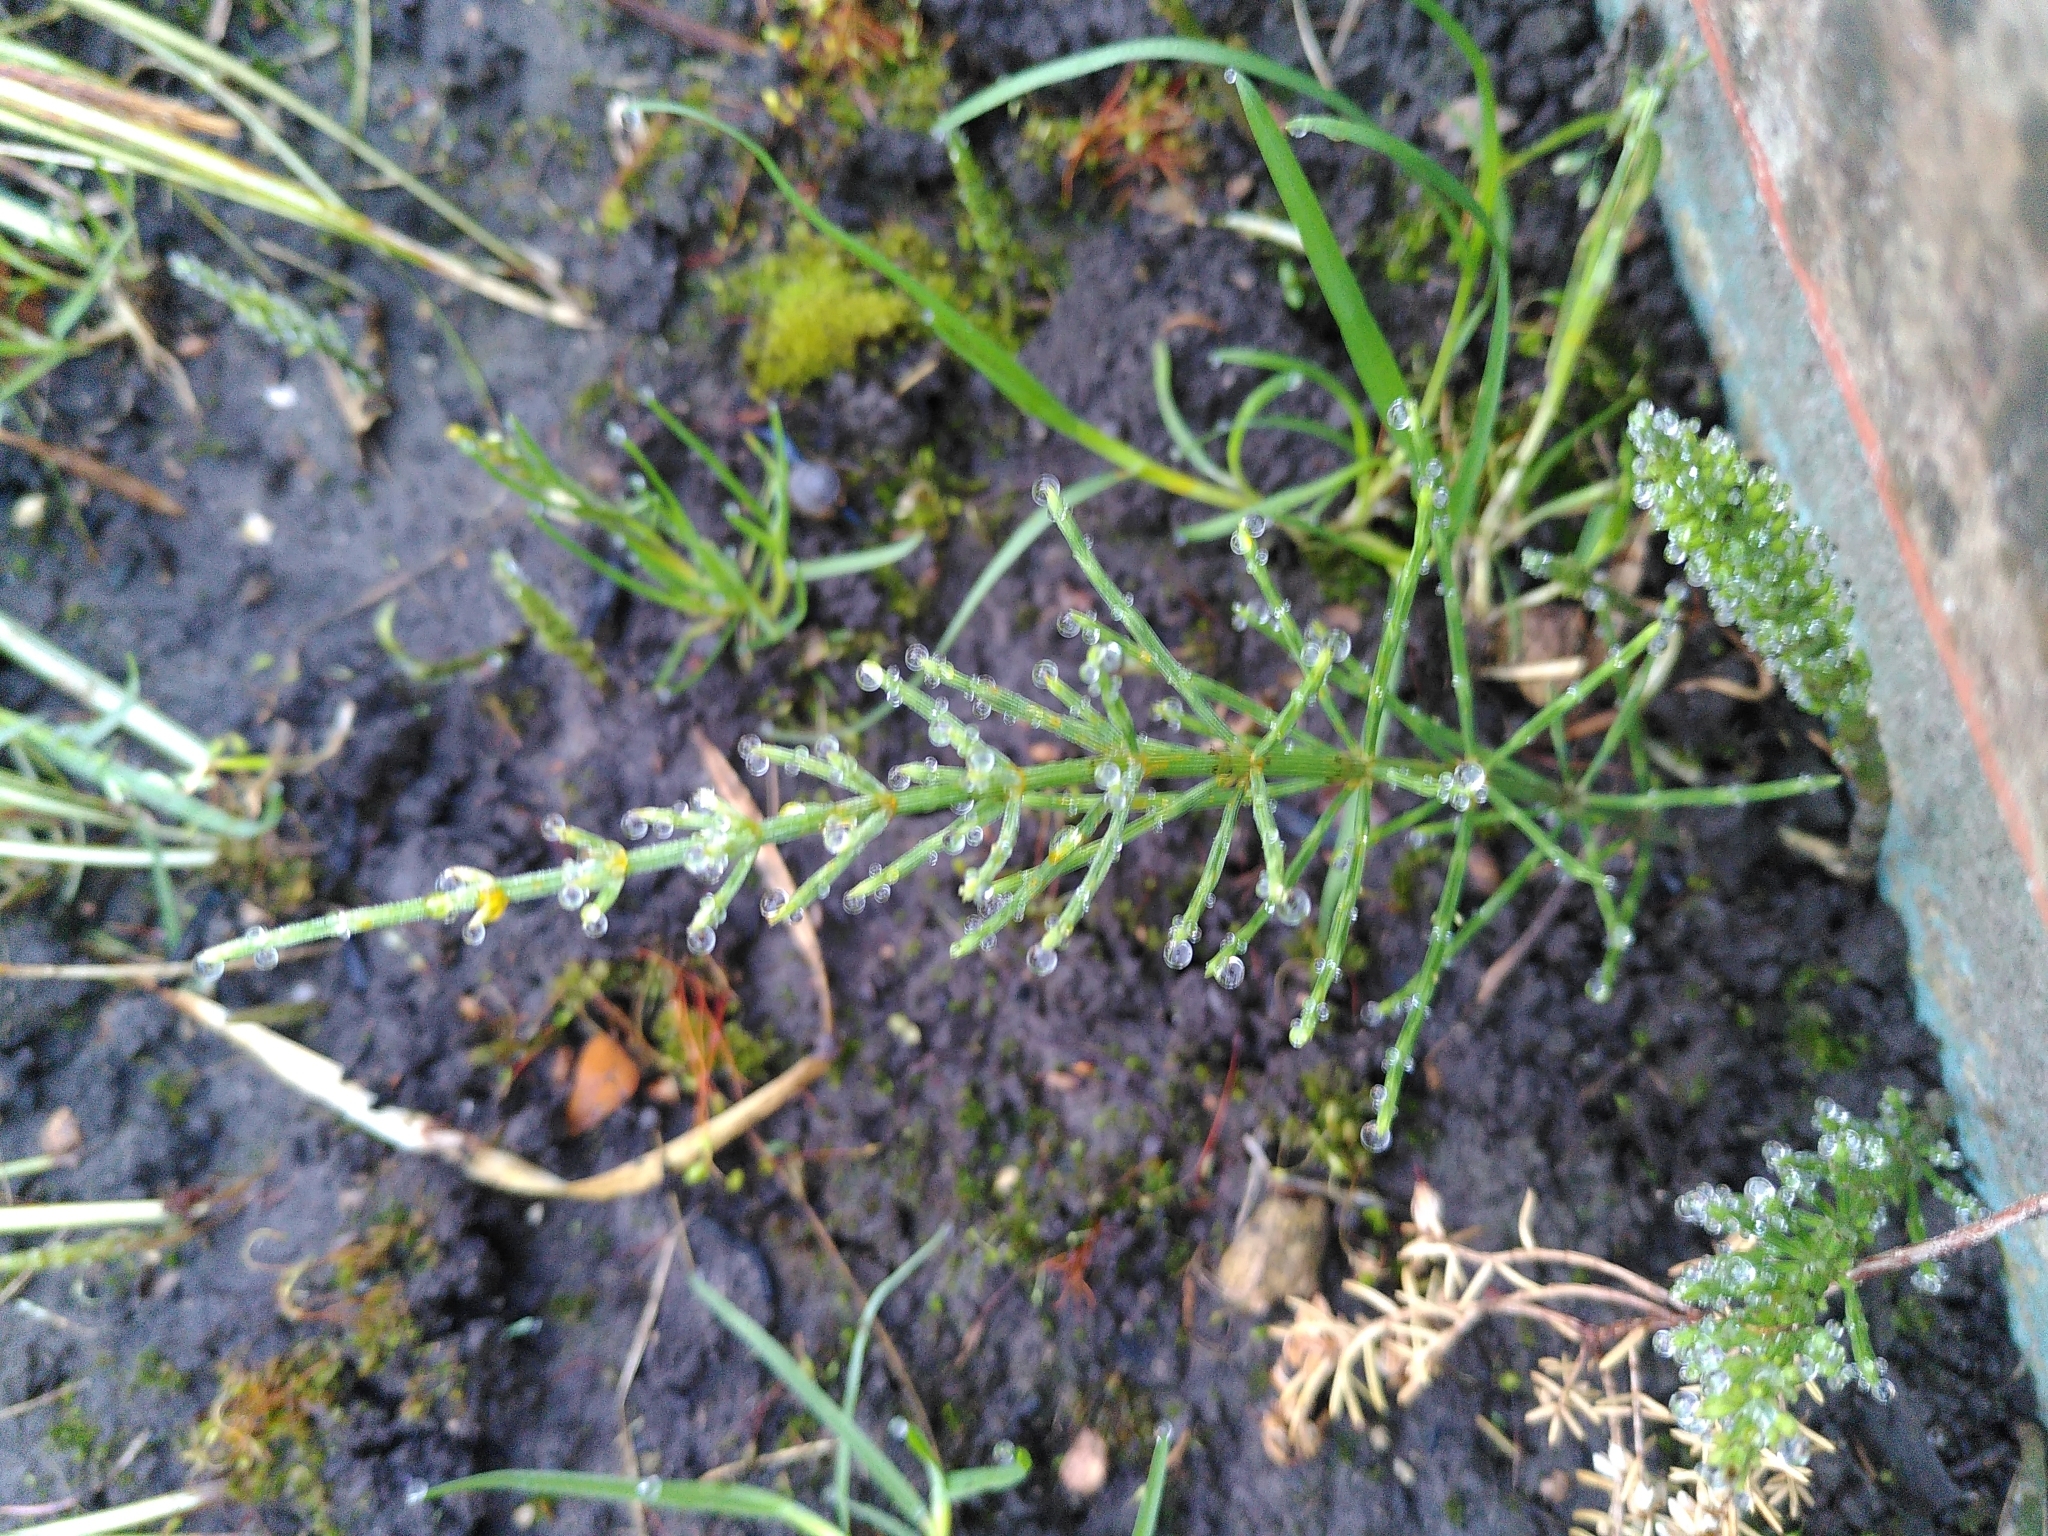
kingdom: Plantae
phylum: Tracheophyta
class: Polypodiopsida
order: Equisetales
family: Equisetaceae
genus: Equisetum
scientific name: Equisetum arvense
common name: Field horsetail
